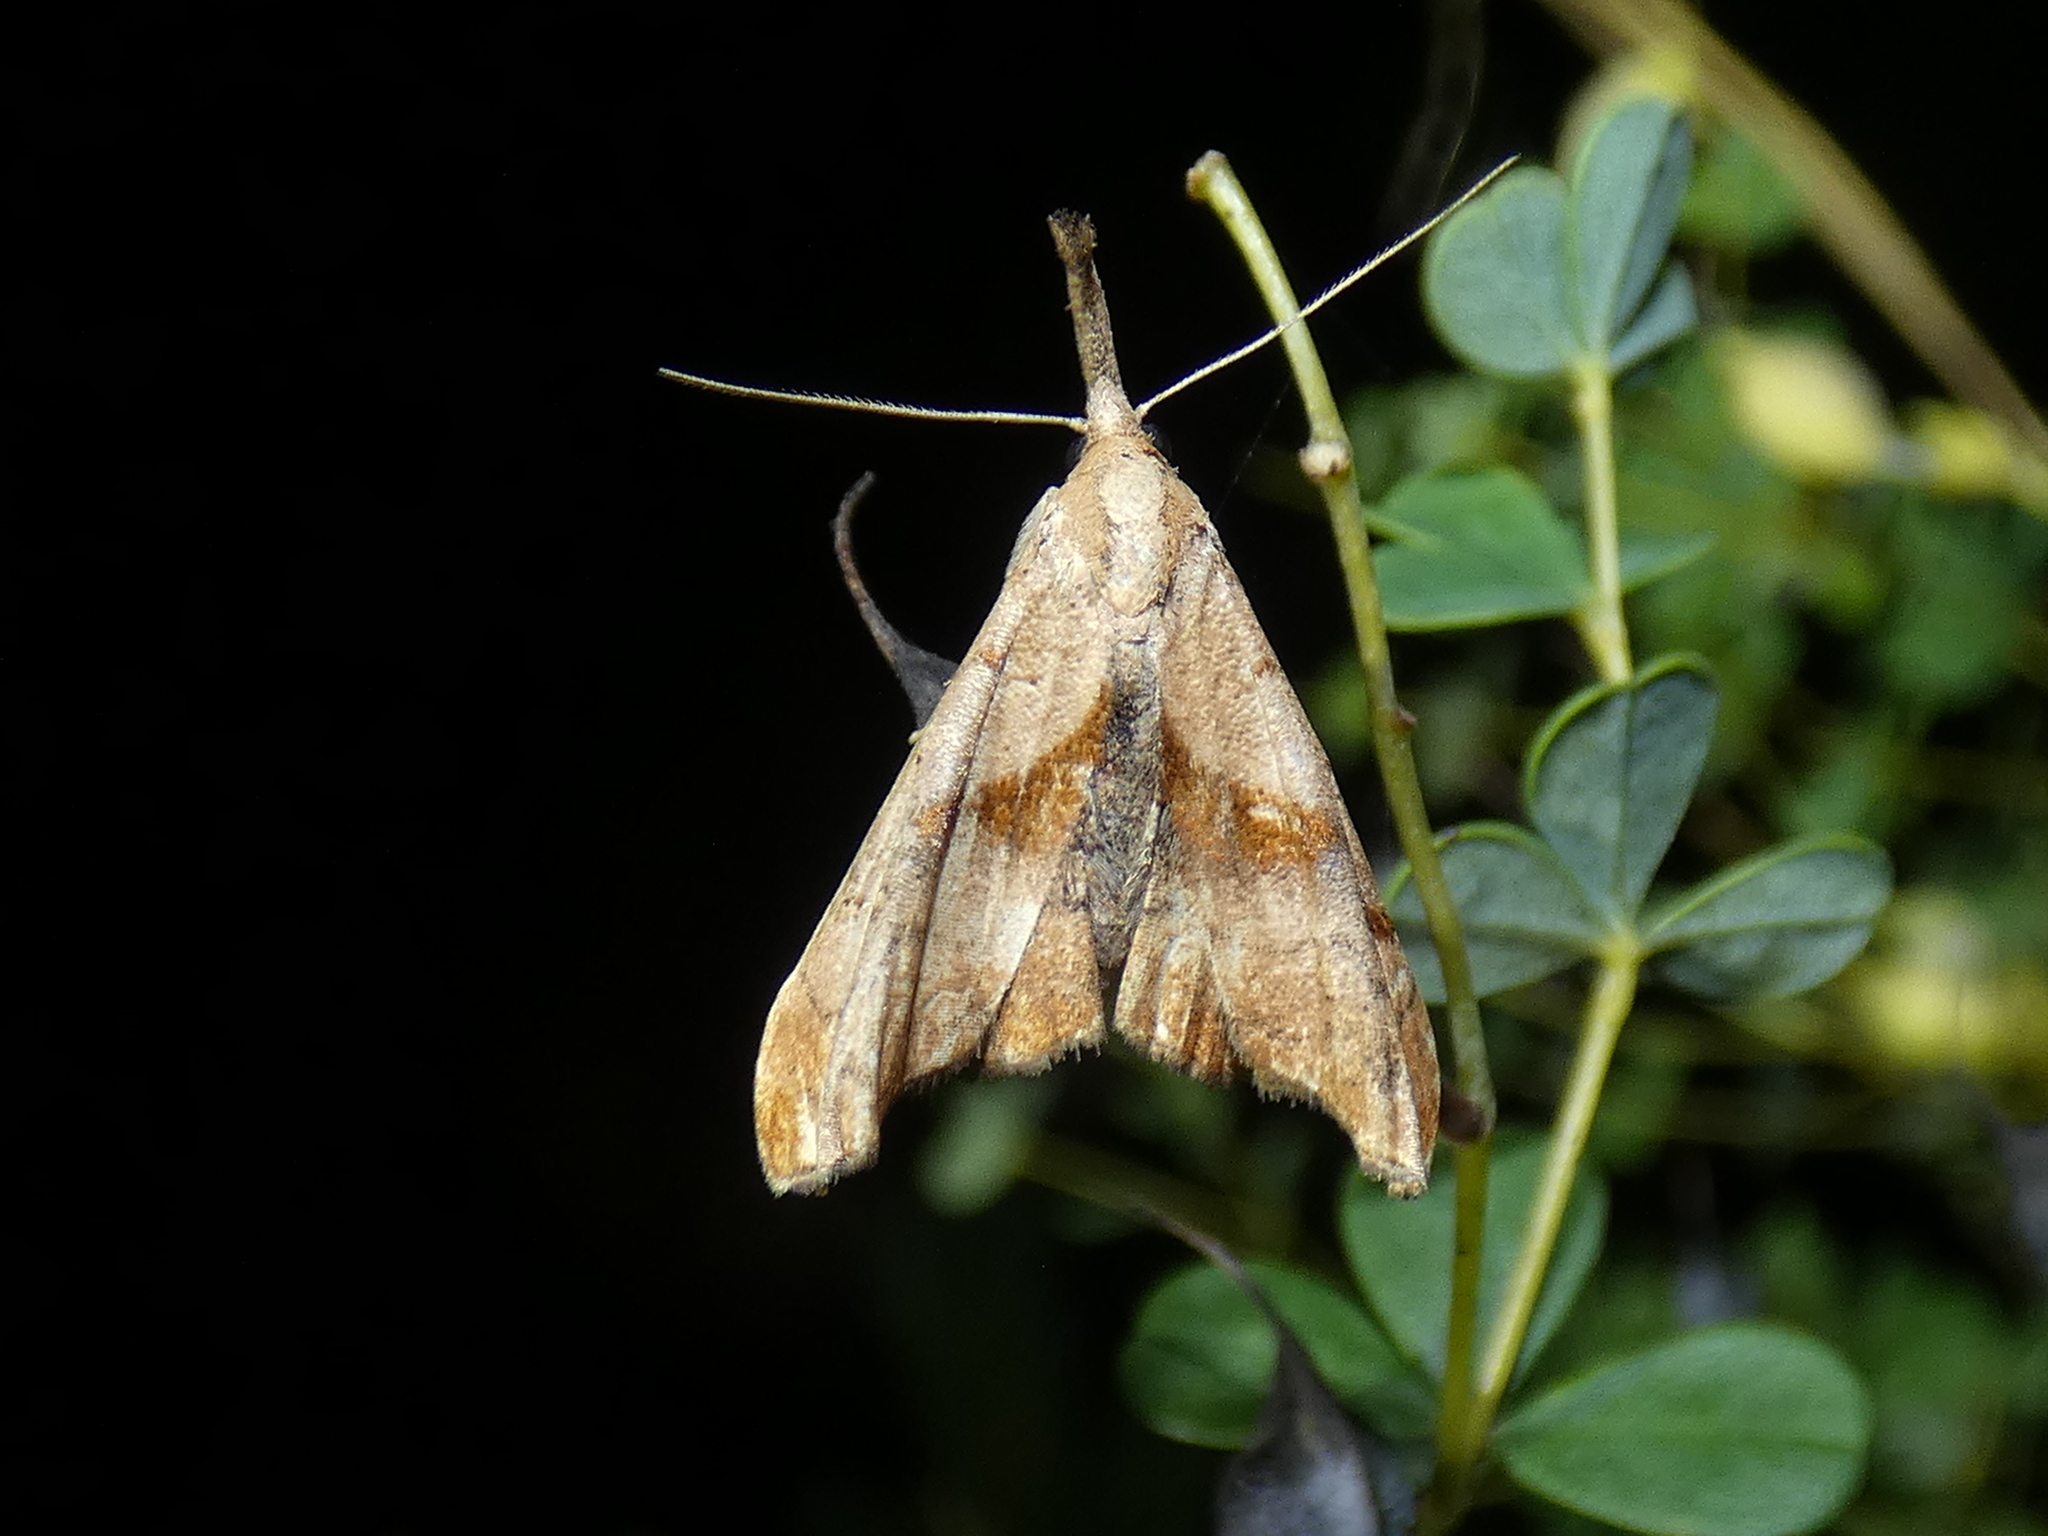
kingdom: Animalia
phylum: Arthropoda
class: Insecta
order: Lepidoptera
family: Erebidae
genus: Palthis
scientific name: Palthis angulalis
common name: Dark-spotted palthis moth
